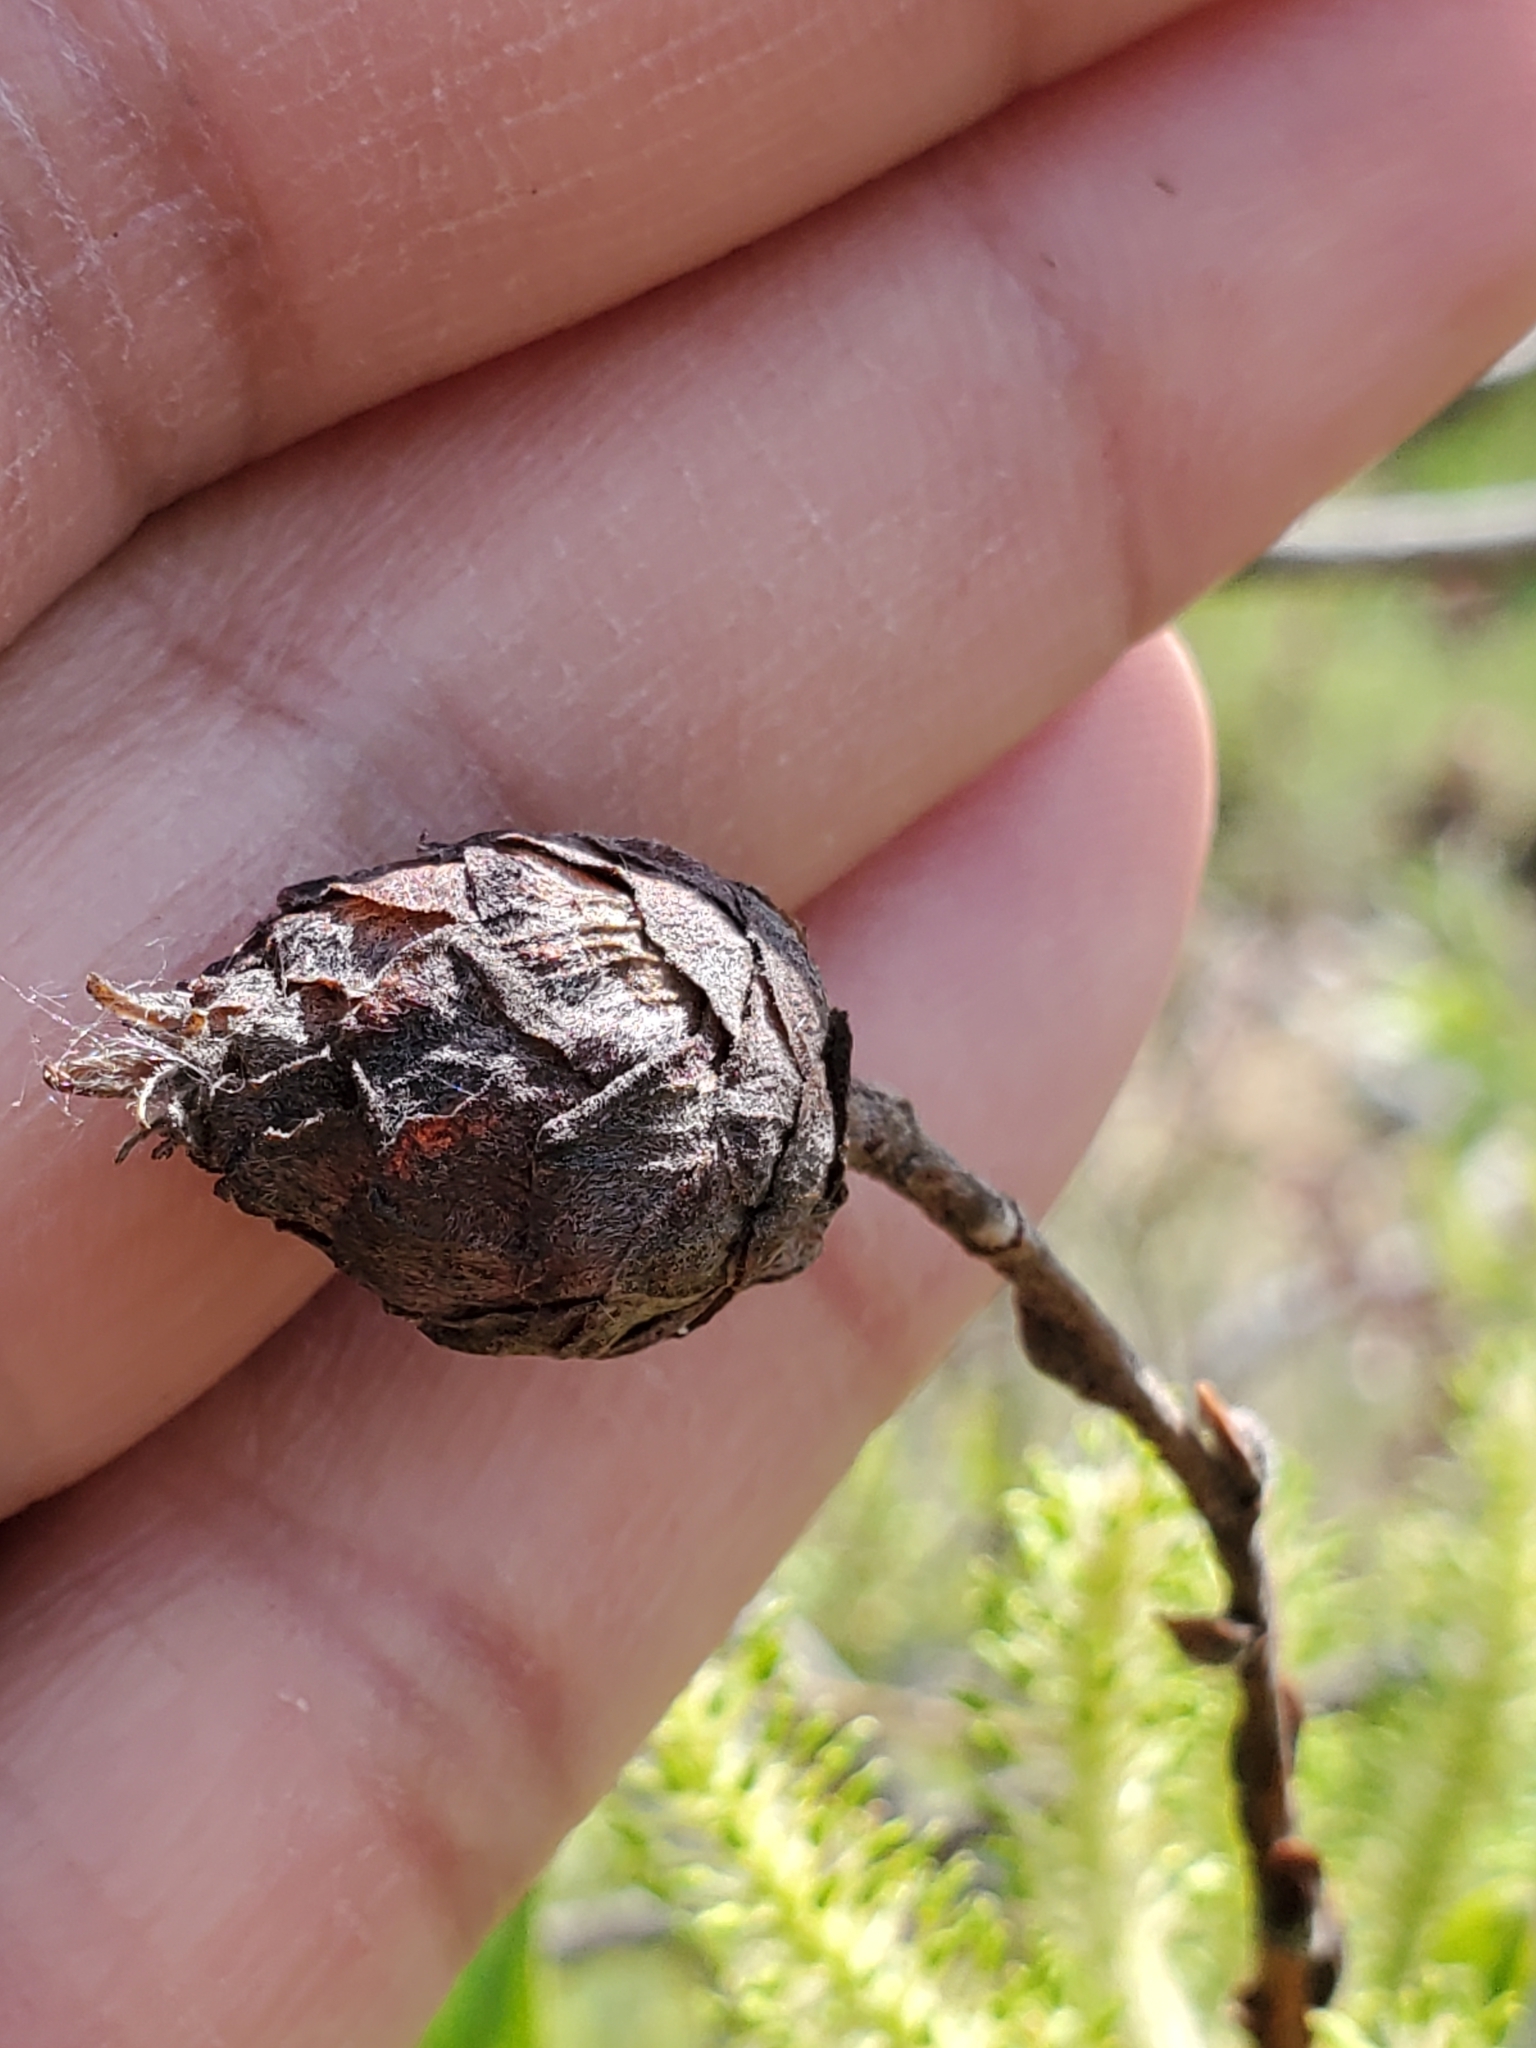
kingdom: Animalia
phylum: Arthropoda
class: Insecta
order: Diptera
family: Cecidomyiidae
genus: Rabdophaga
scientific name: Rabdophaga strobiloides
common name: Willow pinecone gall midge
